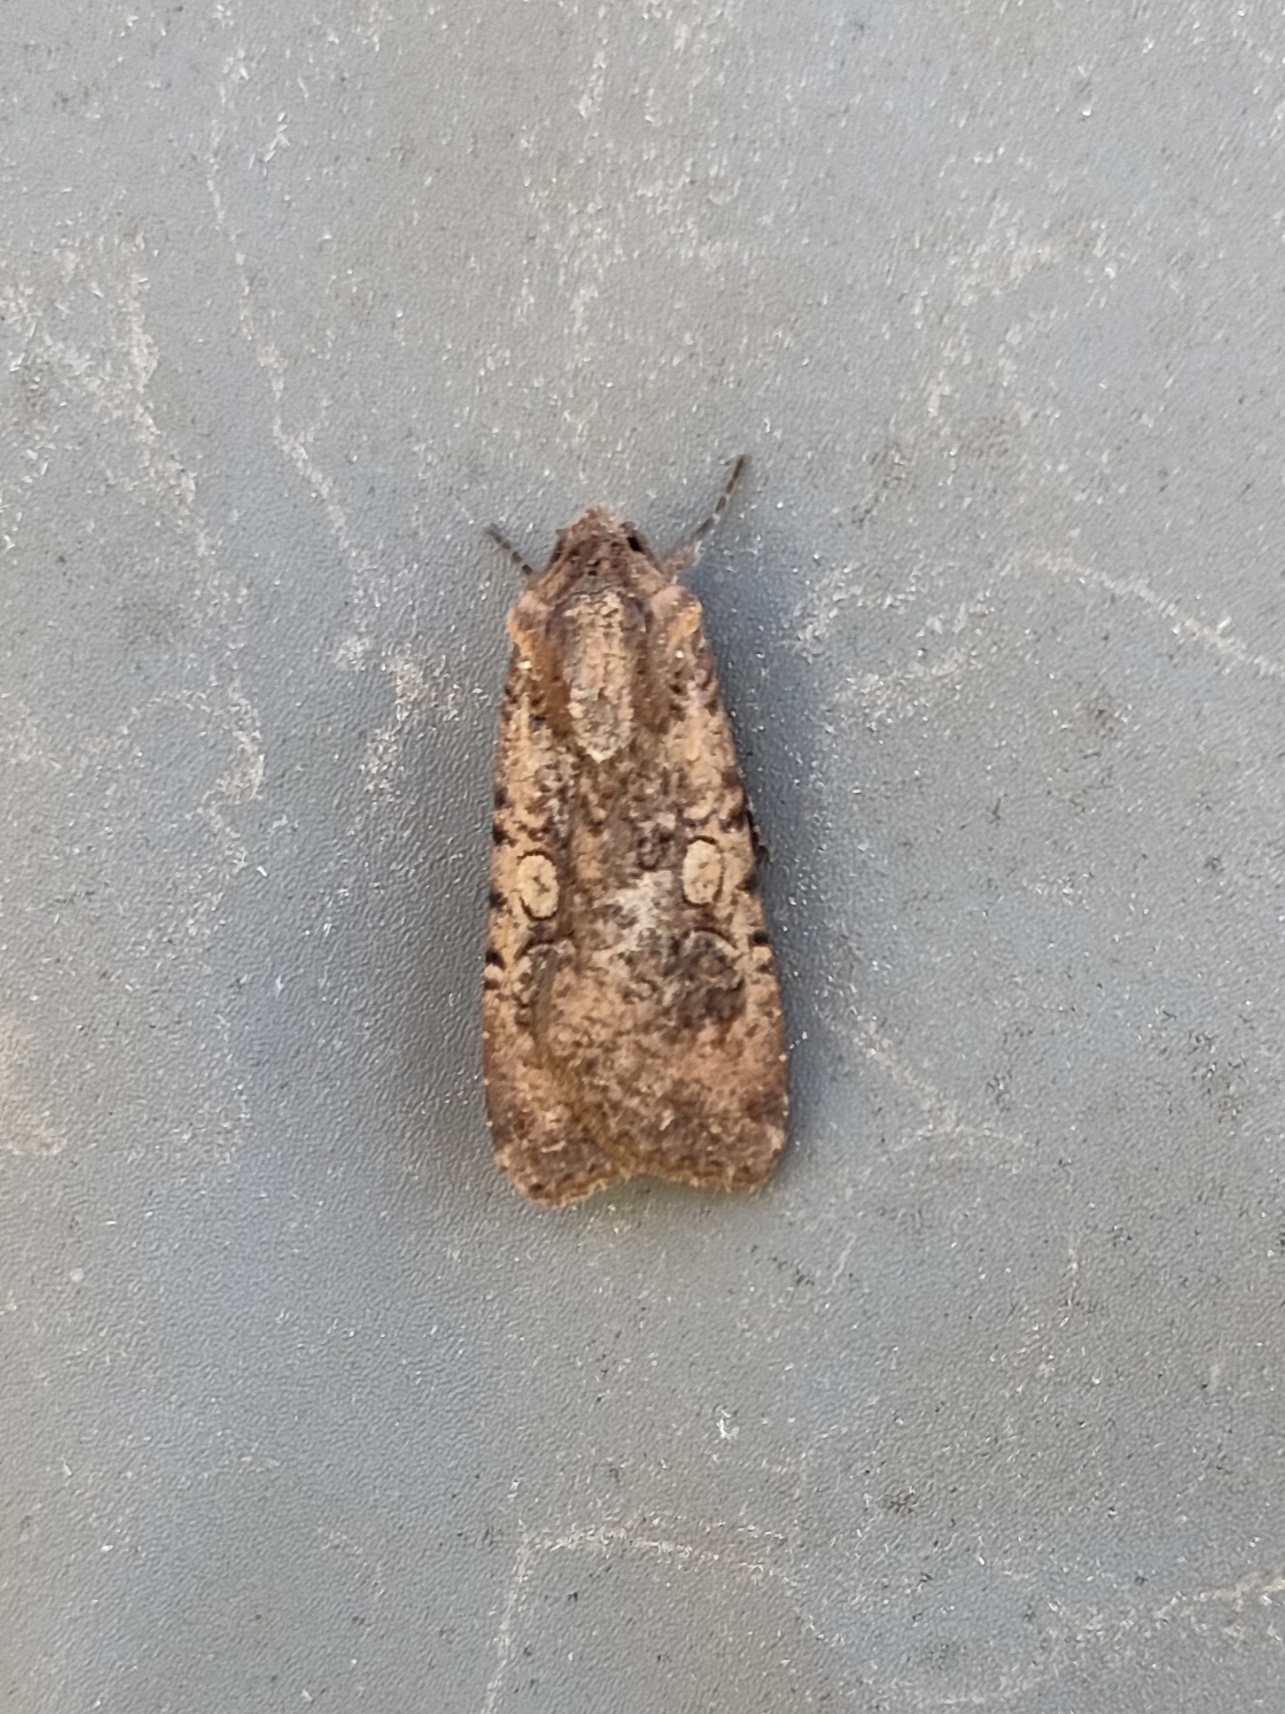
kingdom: Animalia
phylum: Arthropoda
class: Insecta
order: Lepidoptera
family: Noctuidae
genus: Peridroma
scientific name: Peridroma saucia
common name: Pearly underwing
